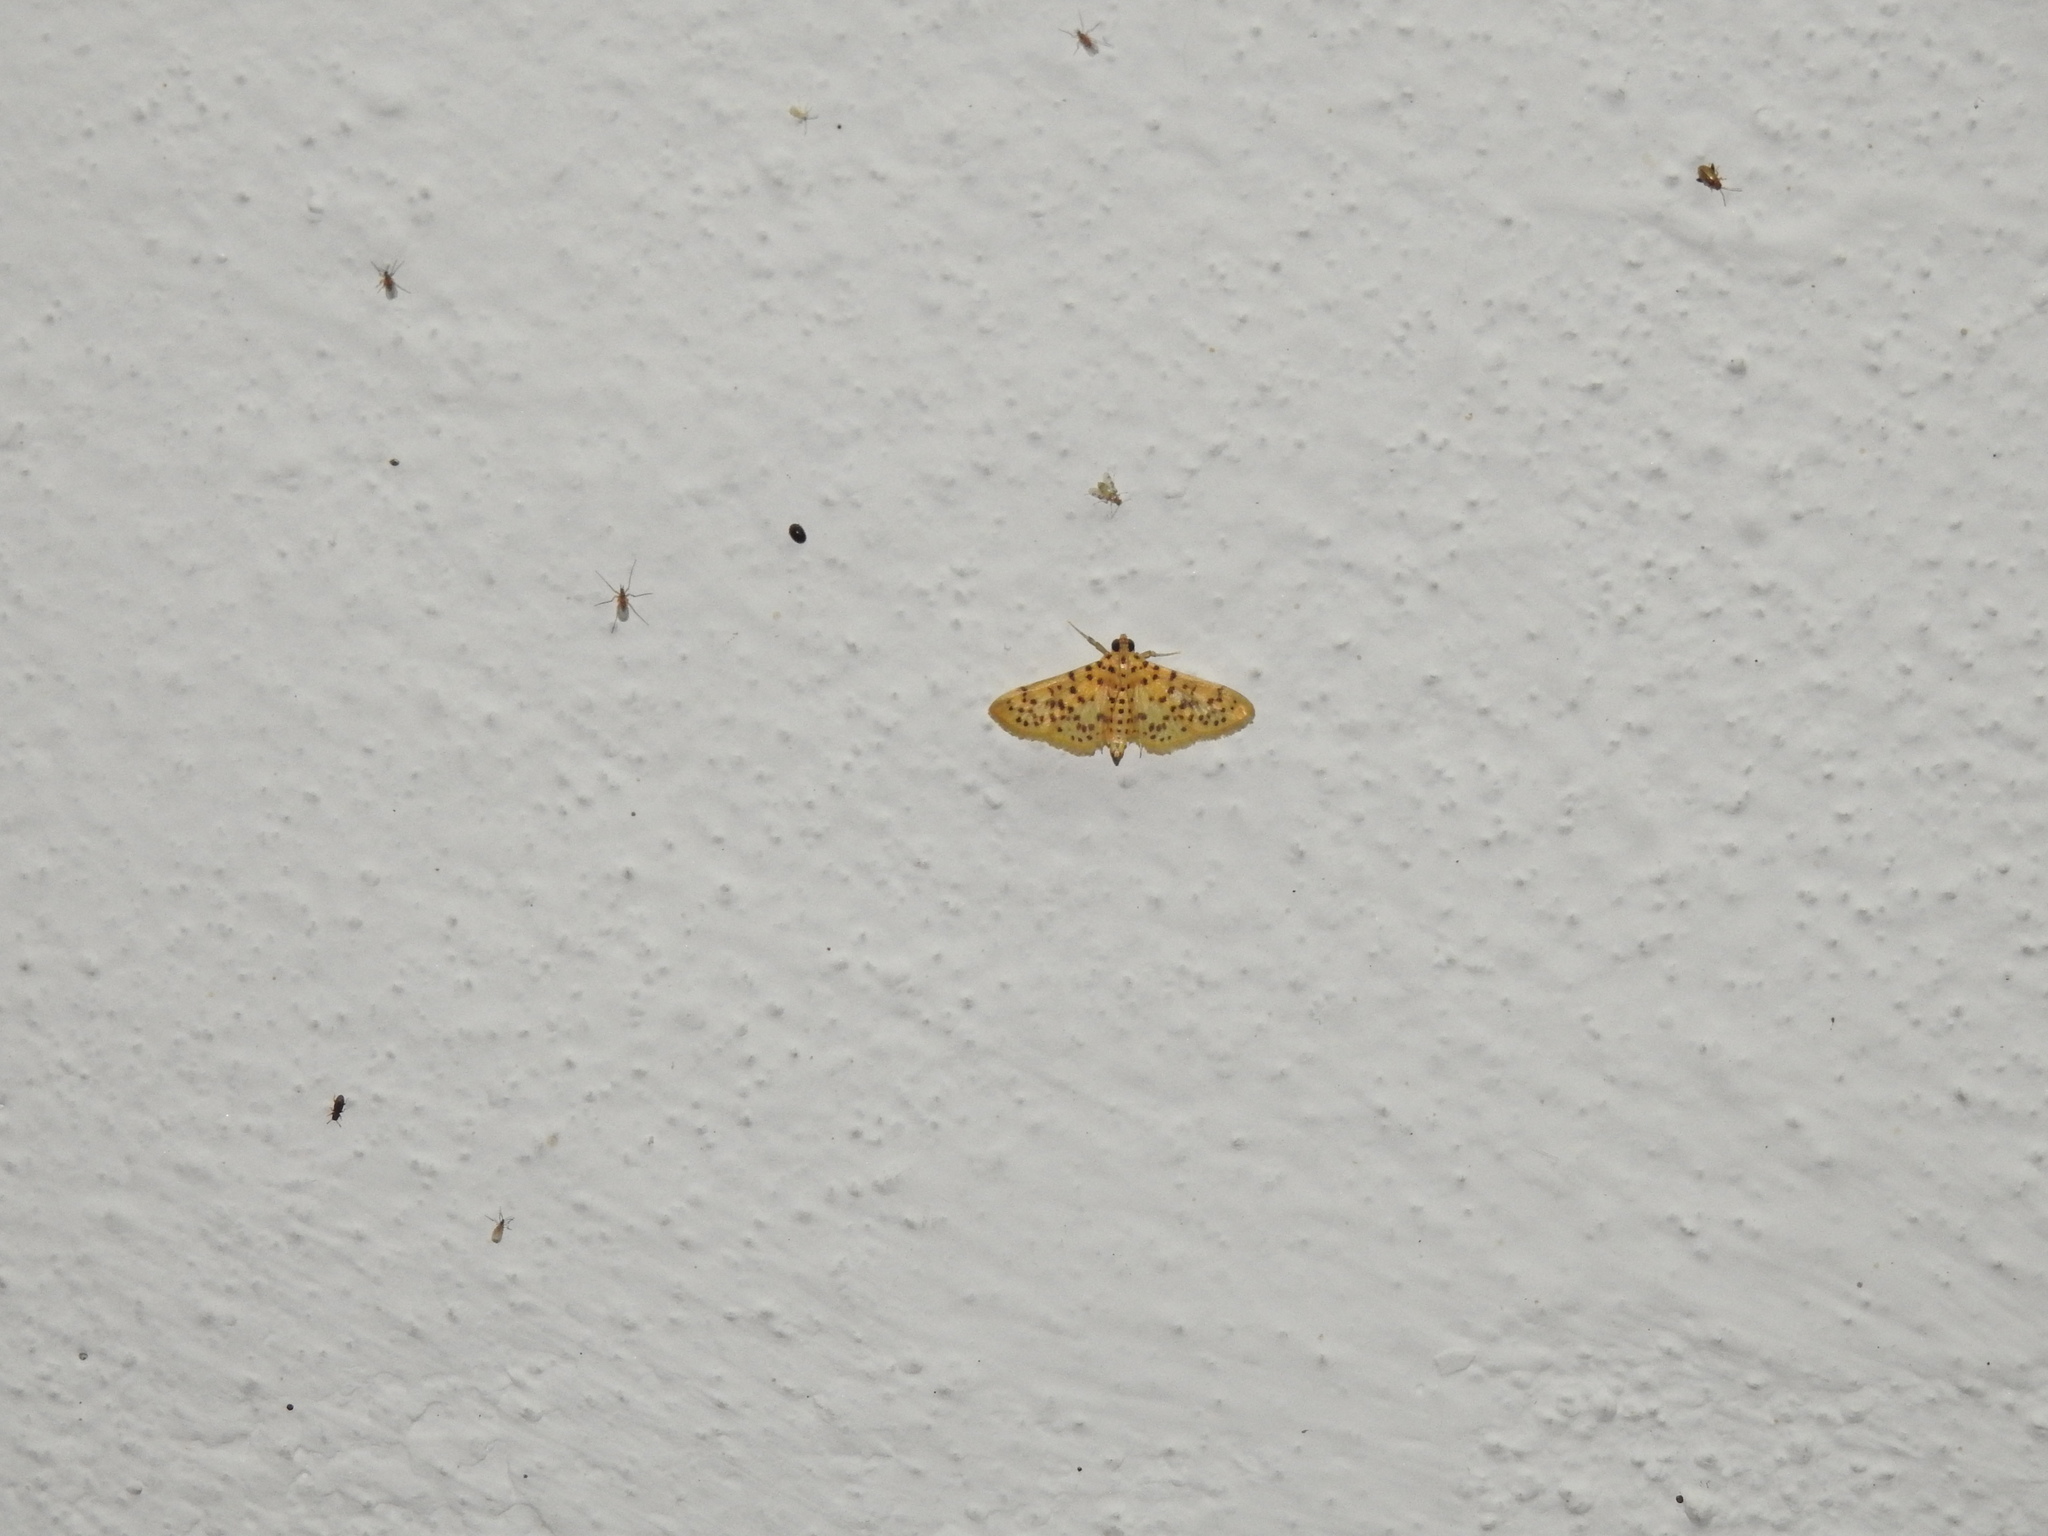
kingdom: Animalia
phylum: Arthropoda
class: Insecta
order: Lepidoptera
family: Crambidae
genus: Conogethes
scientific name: Conogethes punctiferalis
